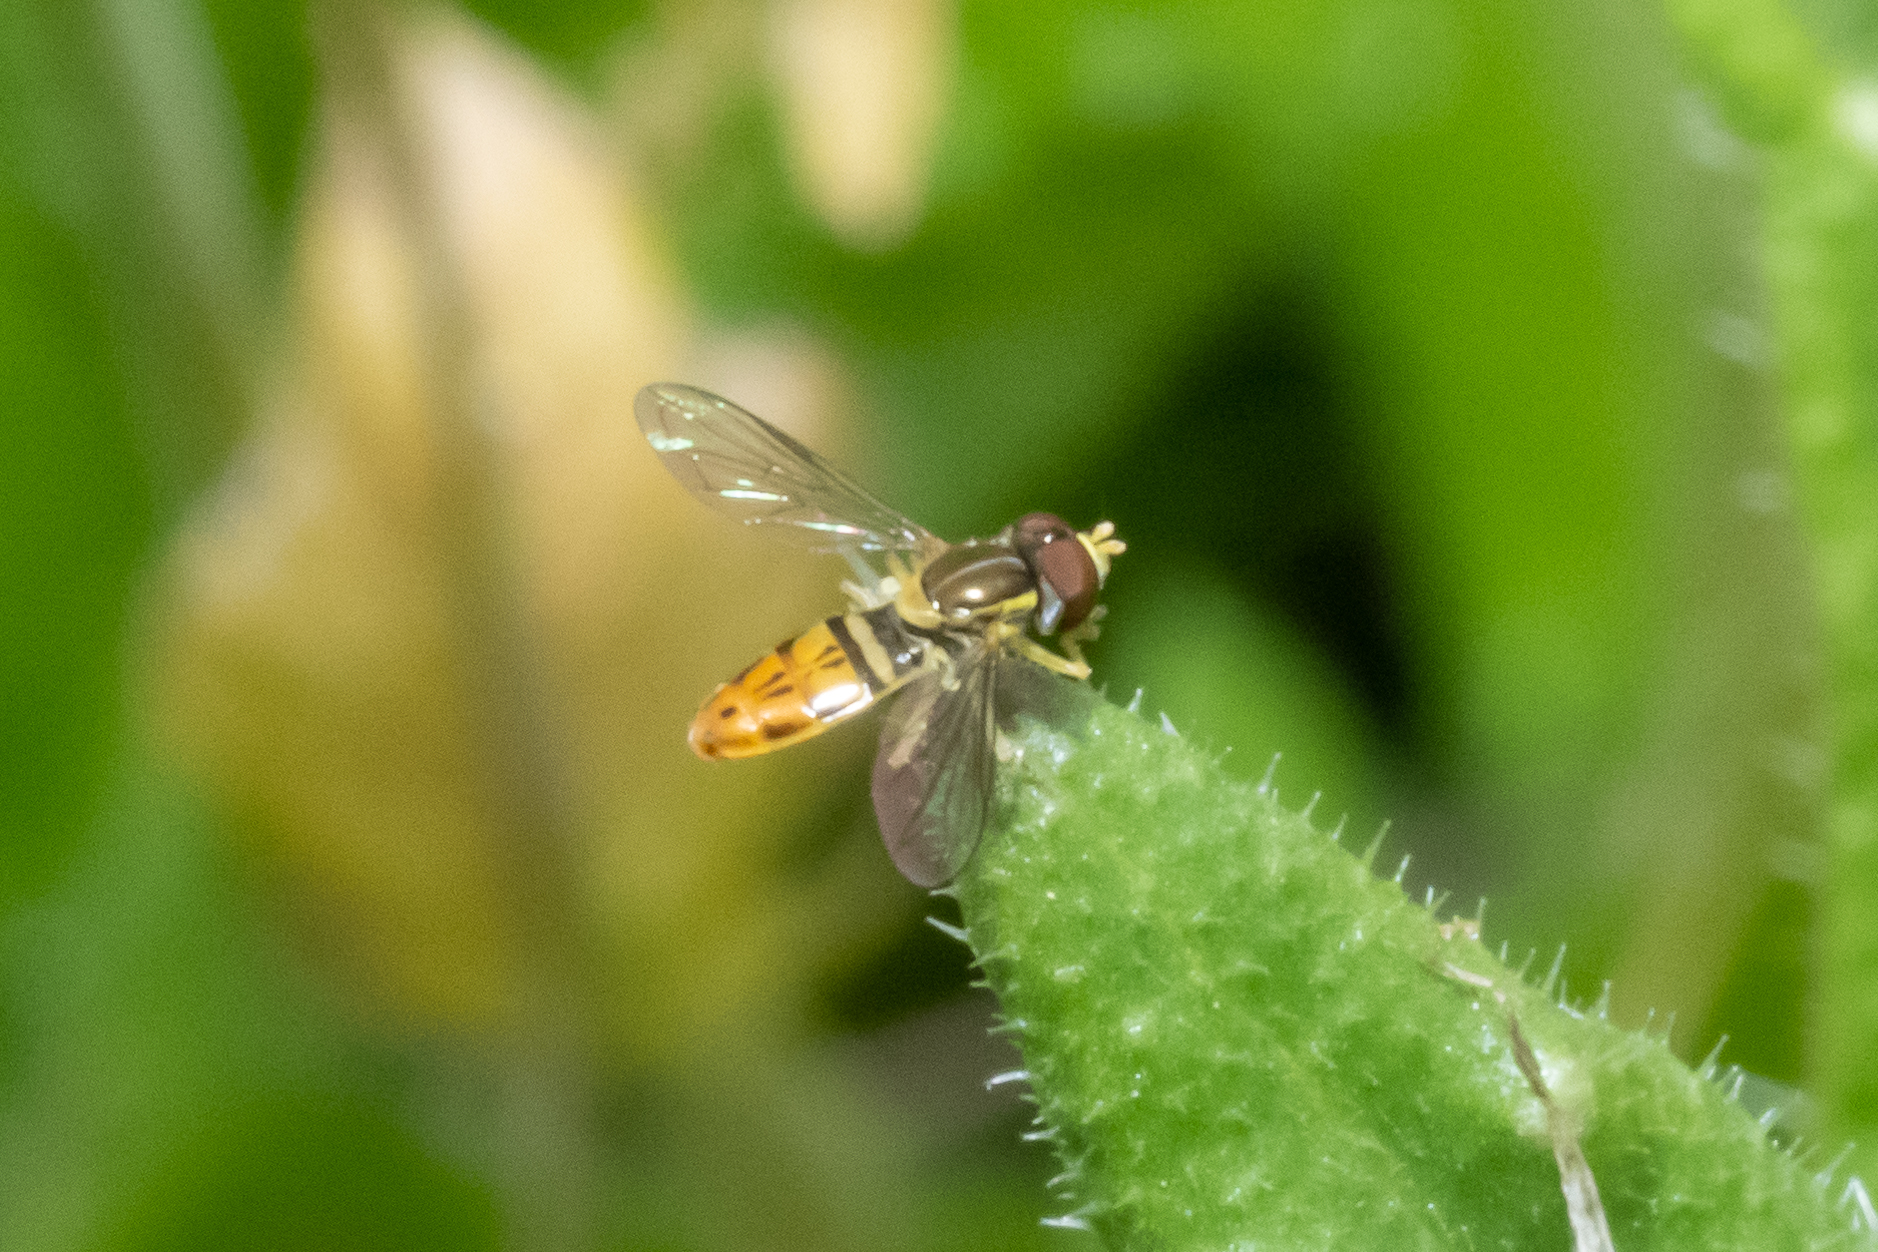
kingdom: Animalia
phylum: Arthropoda
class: Insecta
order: Diptera
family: Syrphidae
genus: Toxomerus
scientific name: Toxomerus marginatus
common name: Syrphid fly
